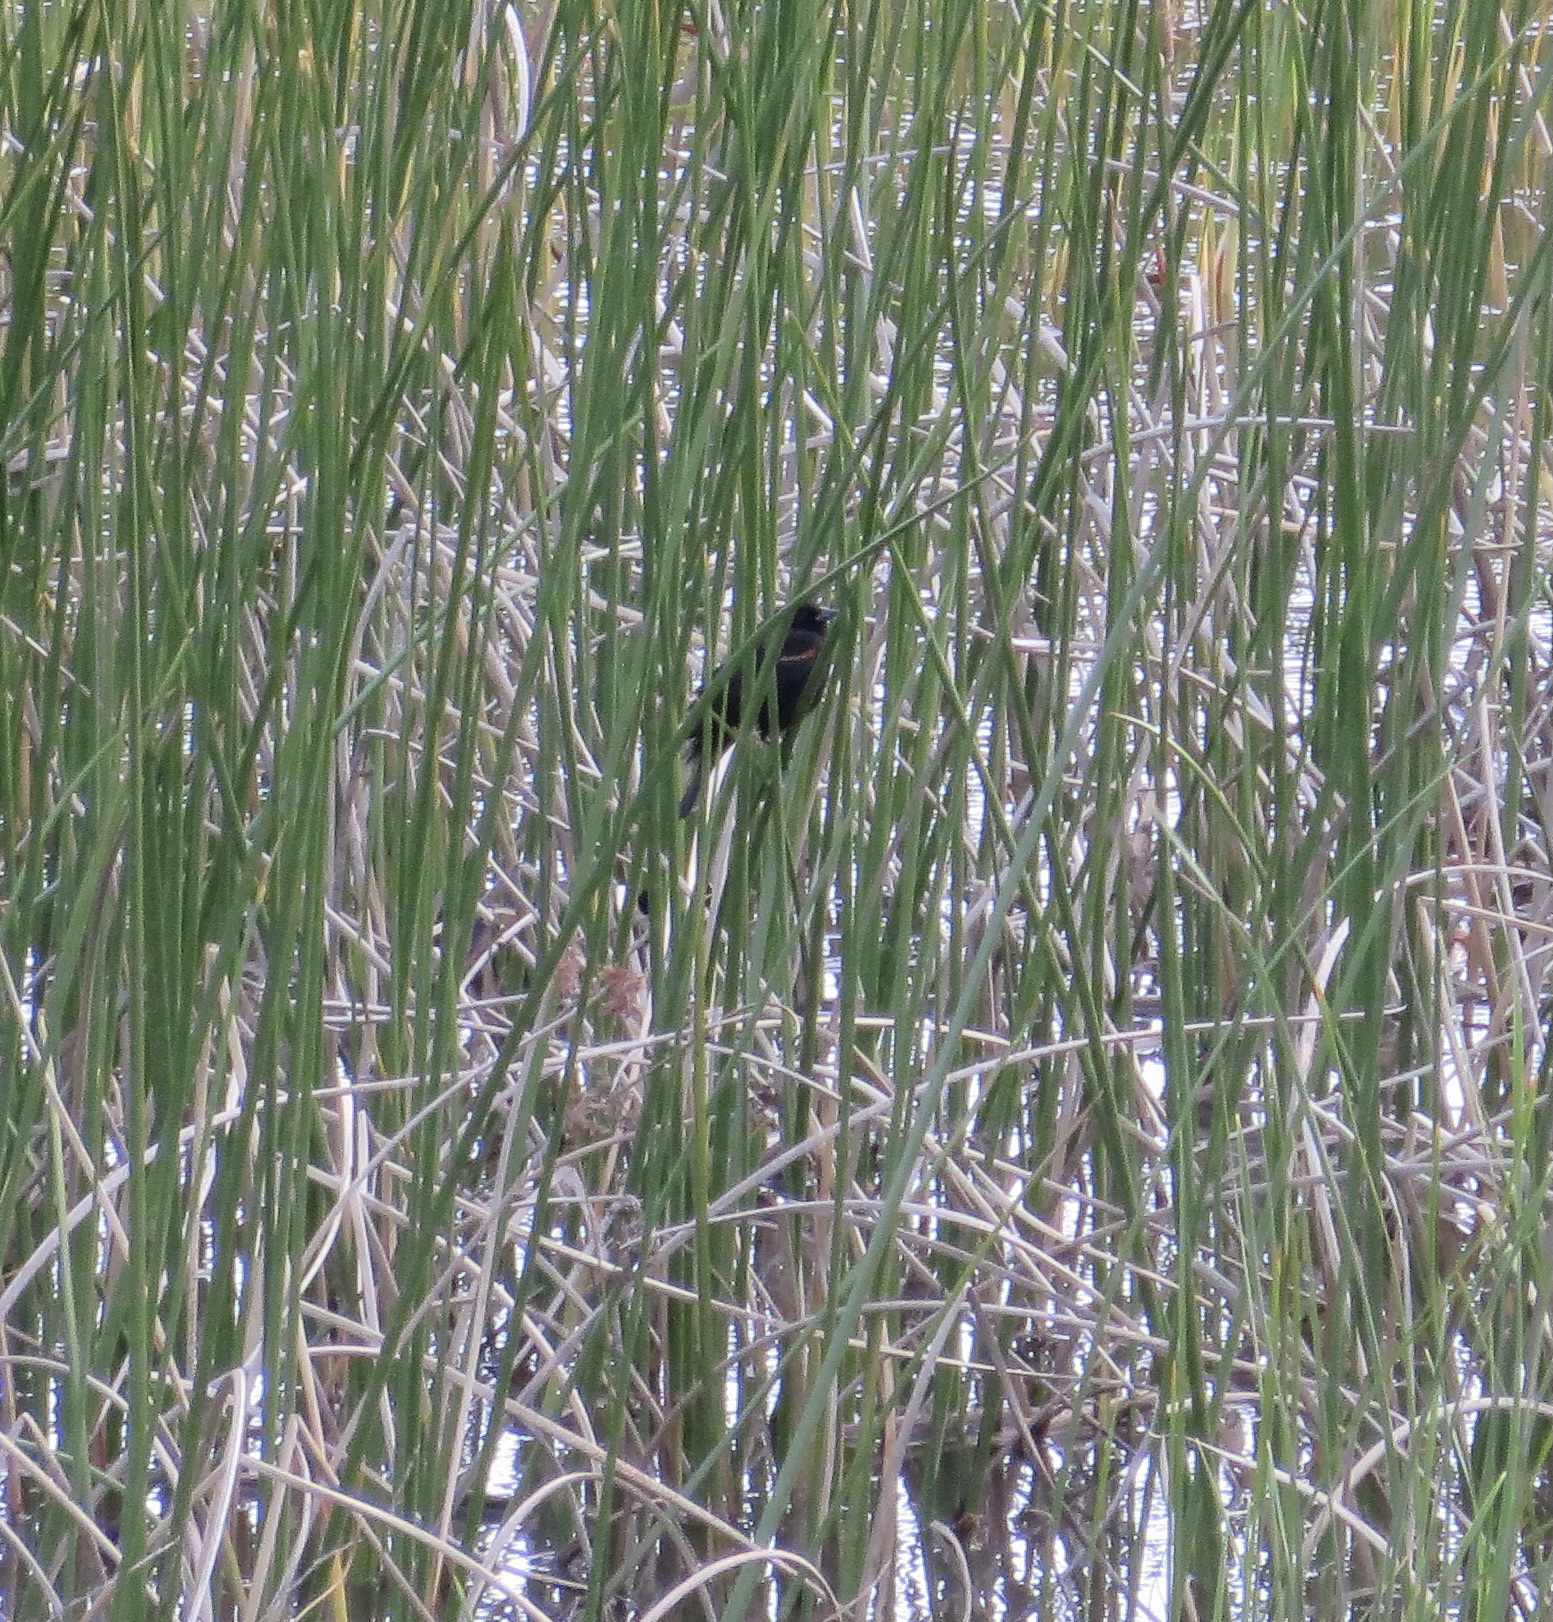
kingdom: Animalia
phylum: Chordata
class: Aves
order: Passeriformes
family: Icteridae
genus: Agelaius
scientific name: Agelaius phoeniceus
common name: Red-winged blackbird
